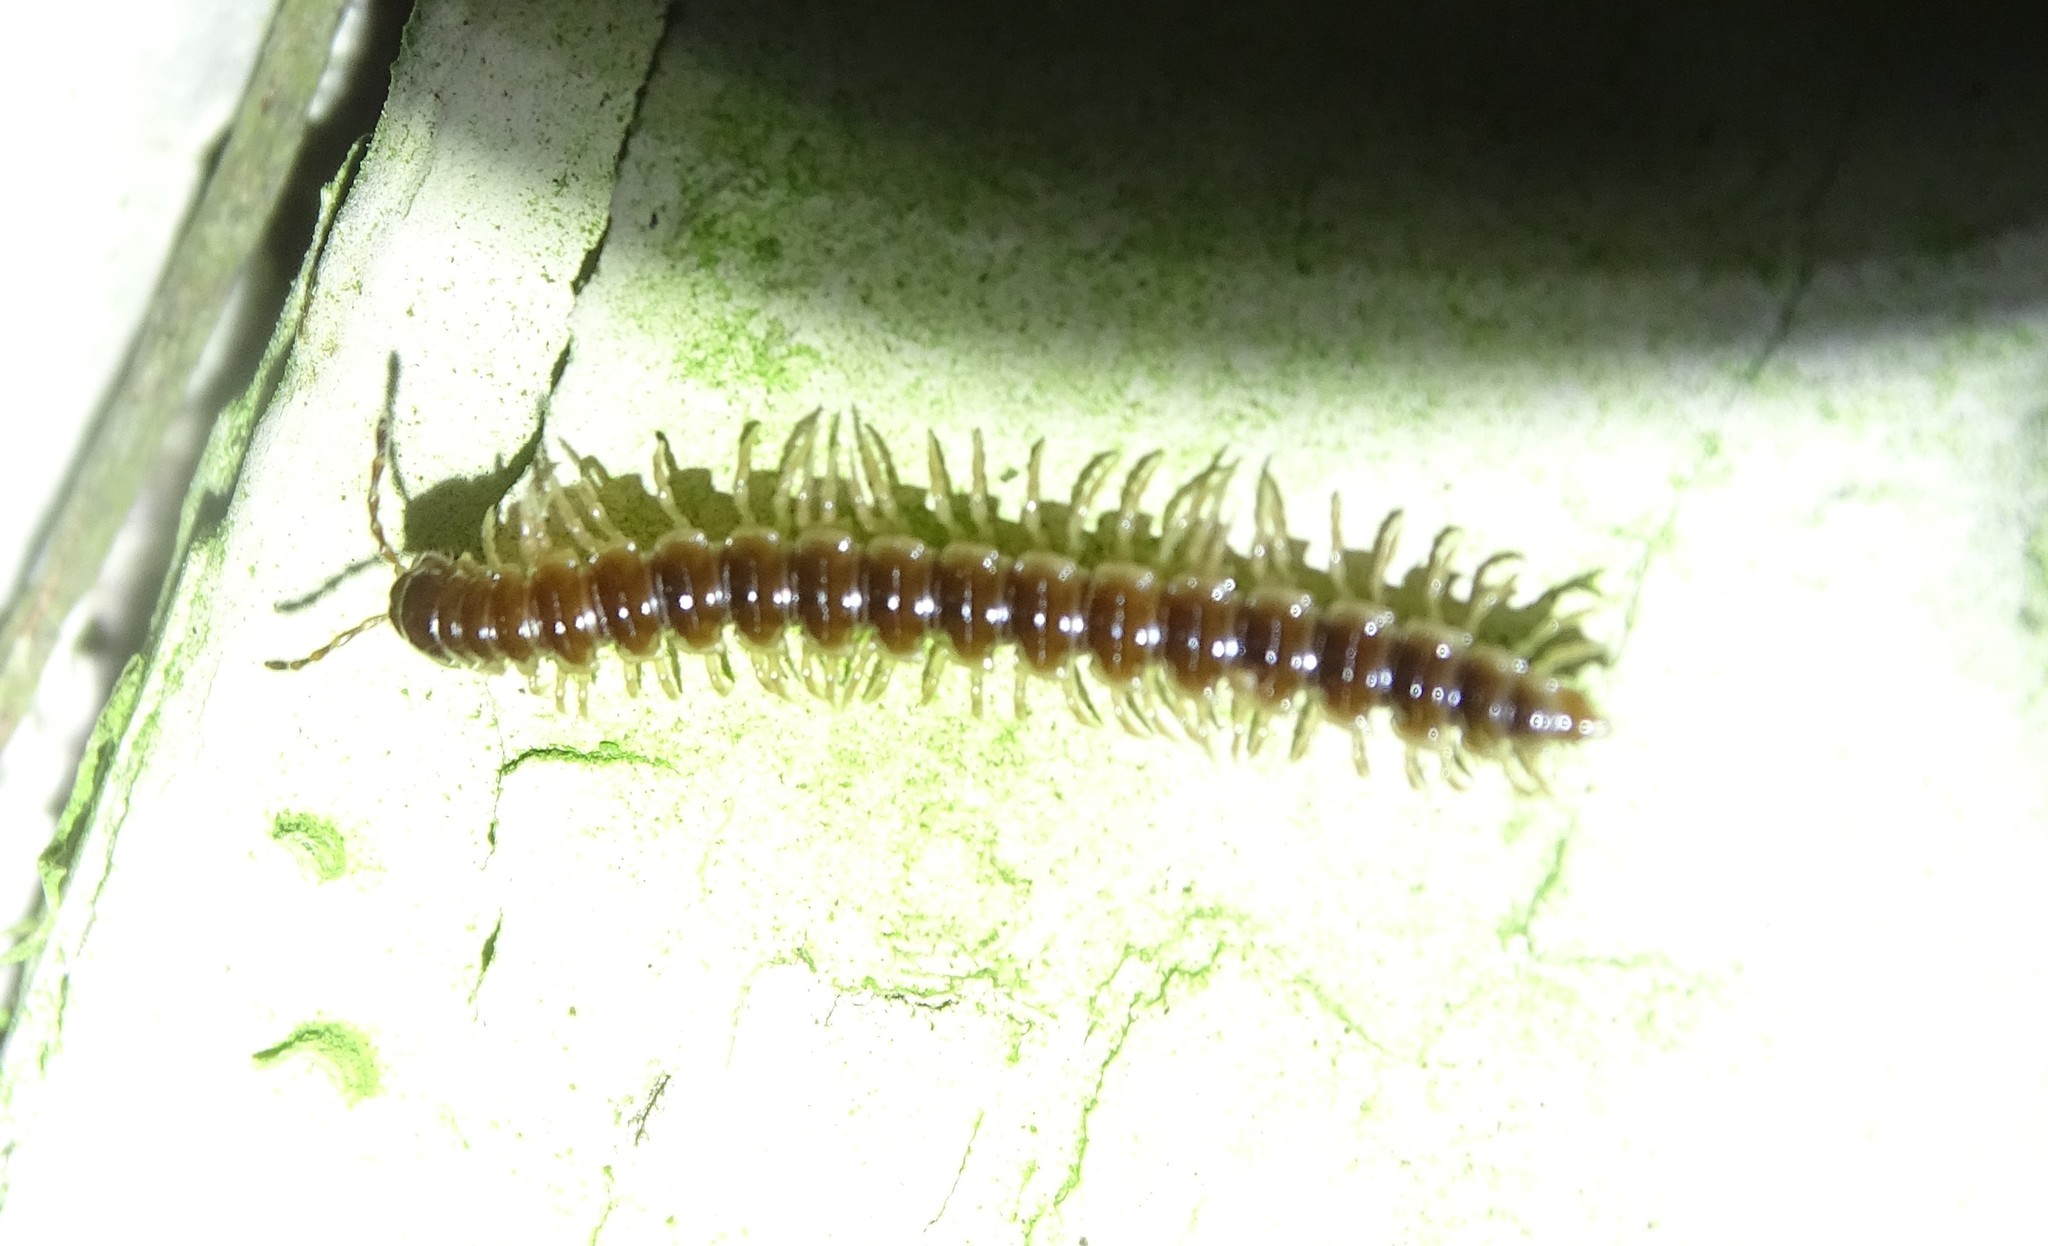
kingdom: Animalia
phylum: Arthropoda
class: Diplopoda
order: Polydesmida
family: Paradoxosomatidae
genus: Oxidus
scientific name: Oxidus gracilis
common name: Greenhouse millipede
